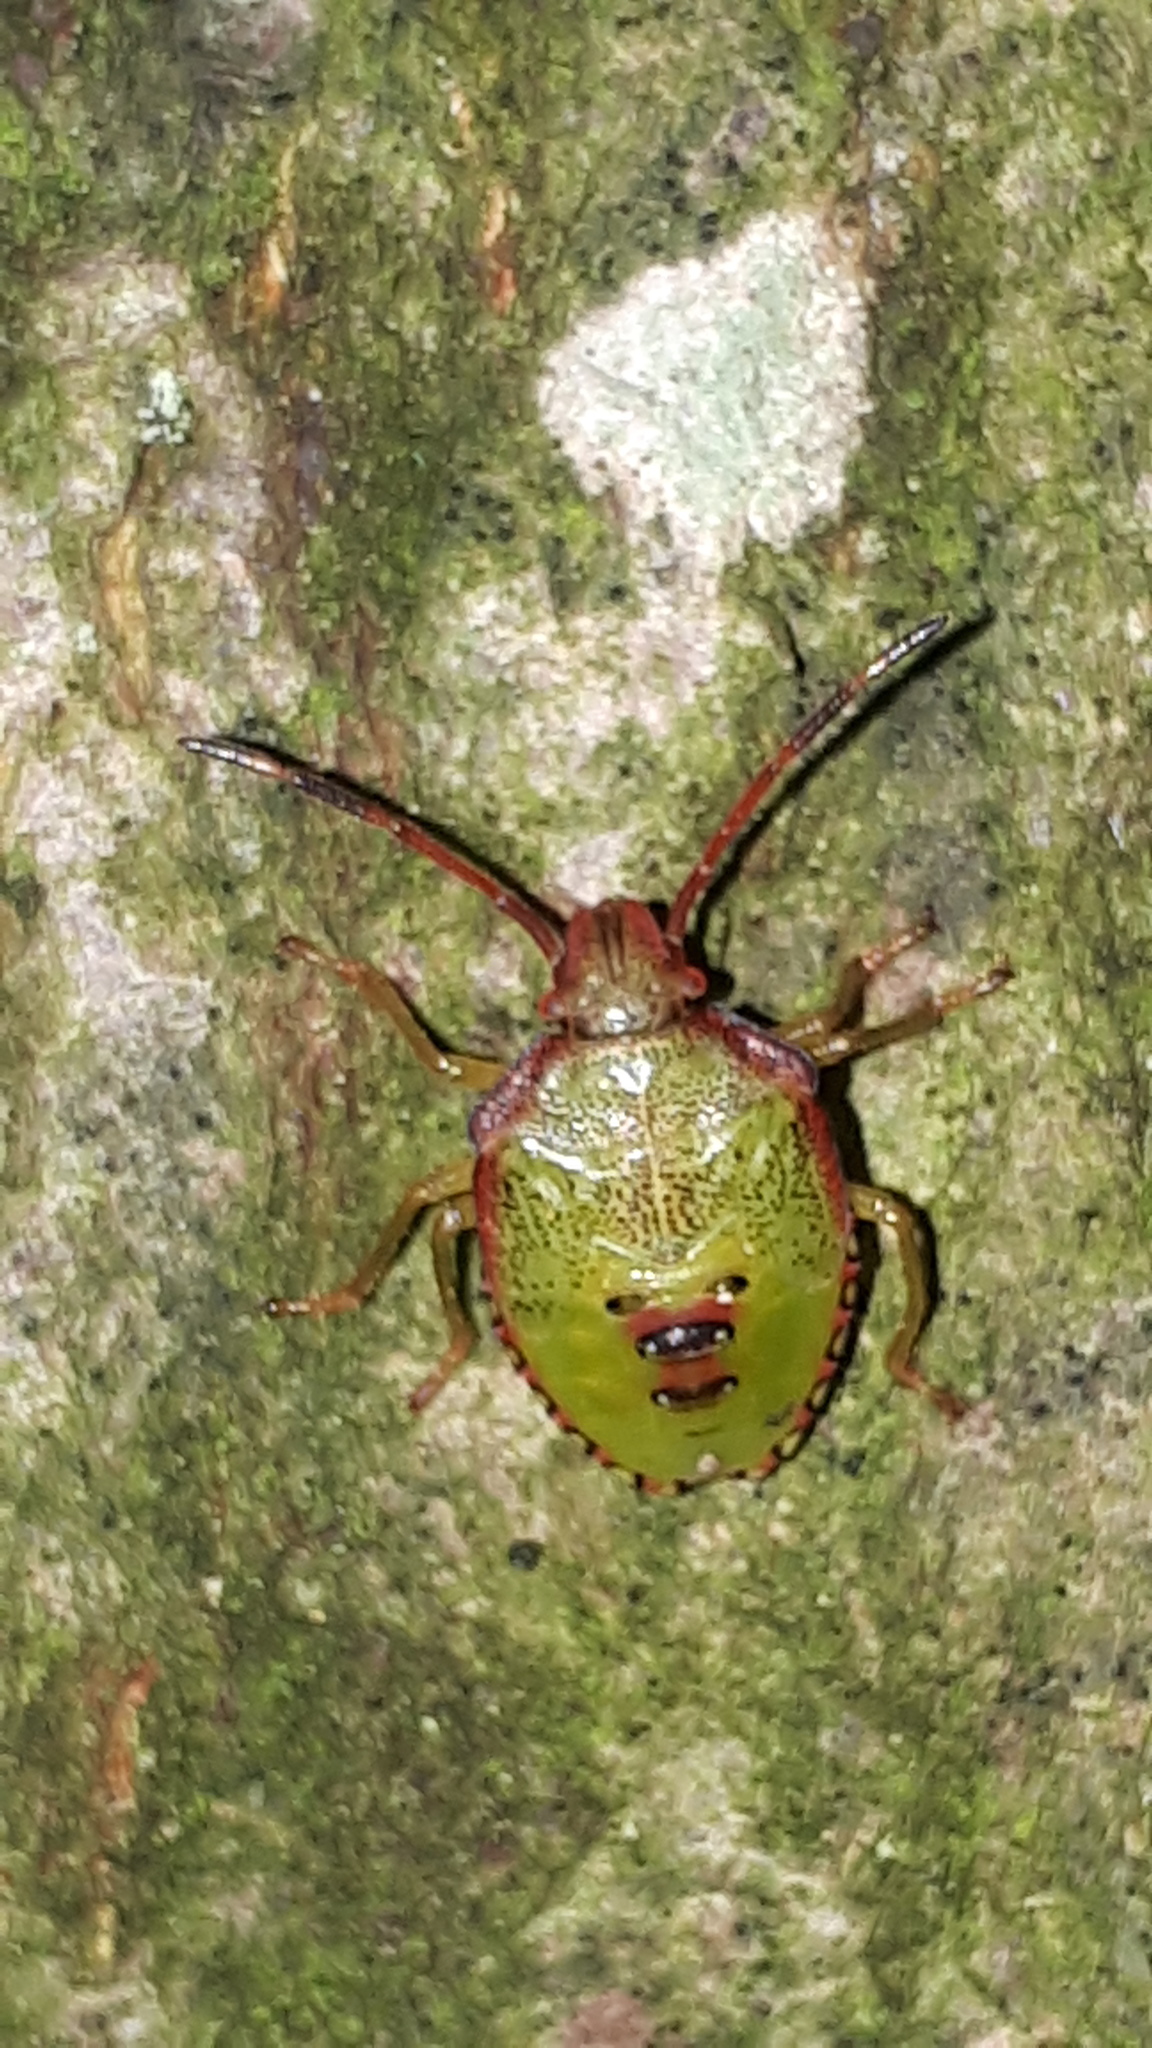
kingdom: Animalia
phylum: Arthropoda
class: Insecta
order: Hemiptera
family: Acanthosomatidae
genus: Acanthosoma
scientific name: Acanthosoma haemorrhoidale
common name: Hawthorn shieldbug
